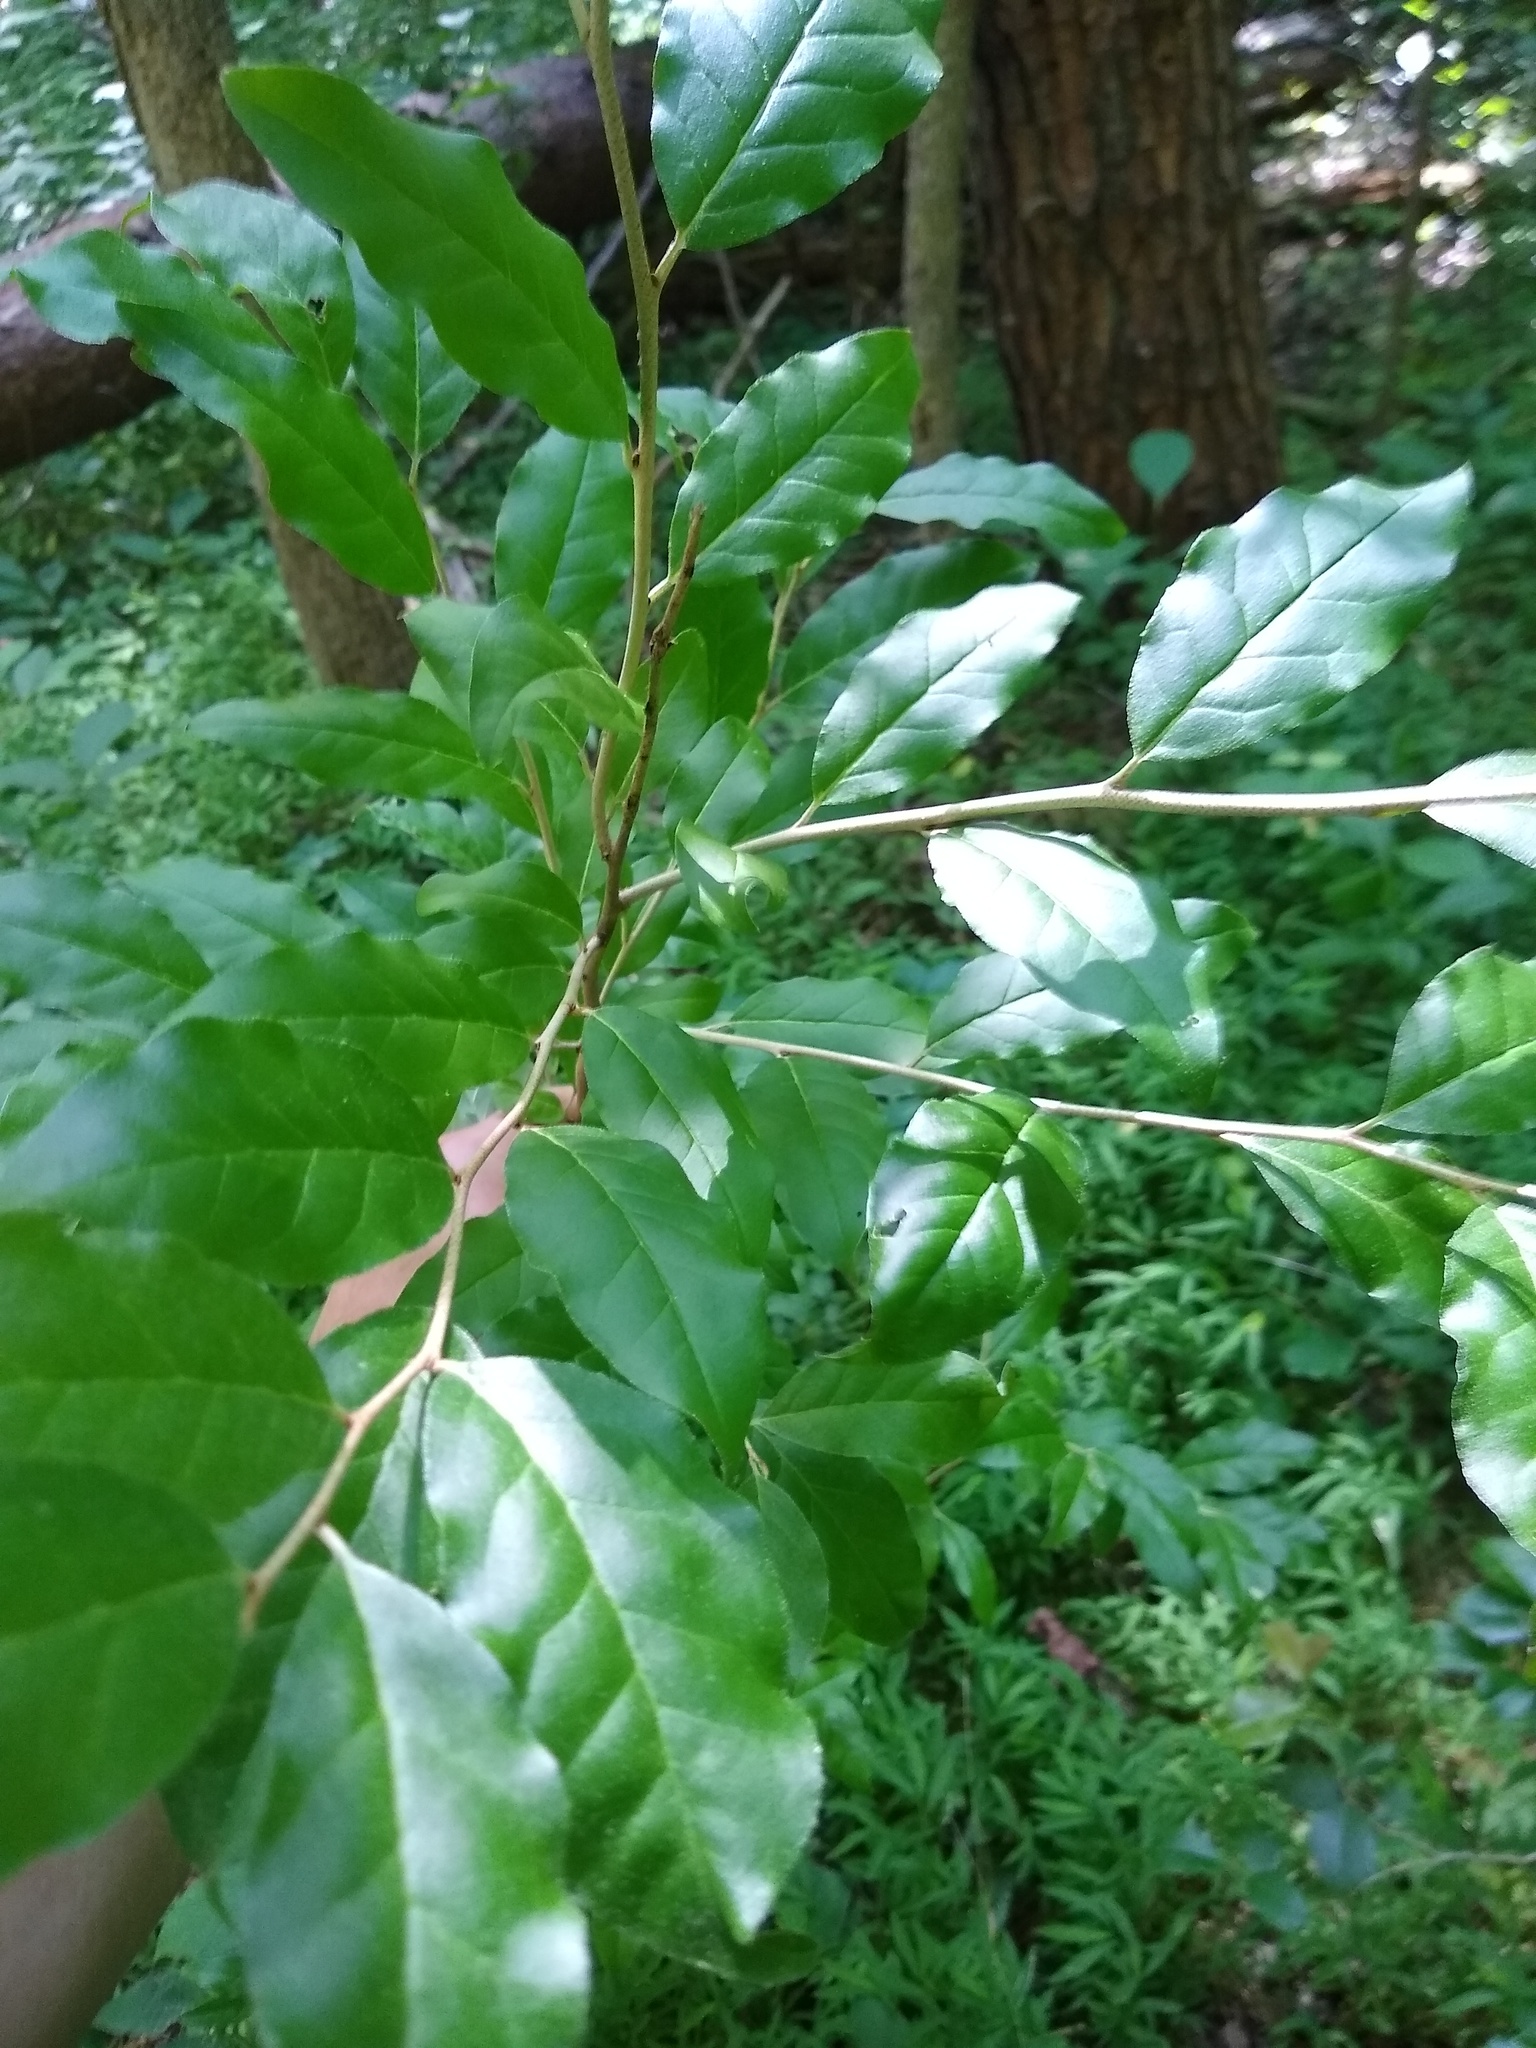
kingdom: Plantae
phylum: Tracheophyta
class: Magnoliopsida
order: Rosales
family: Elaeagnaceae
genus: Elaeagnus
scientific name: Elaeagnus umbellata
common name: Autumn olive
